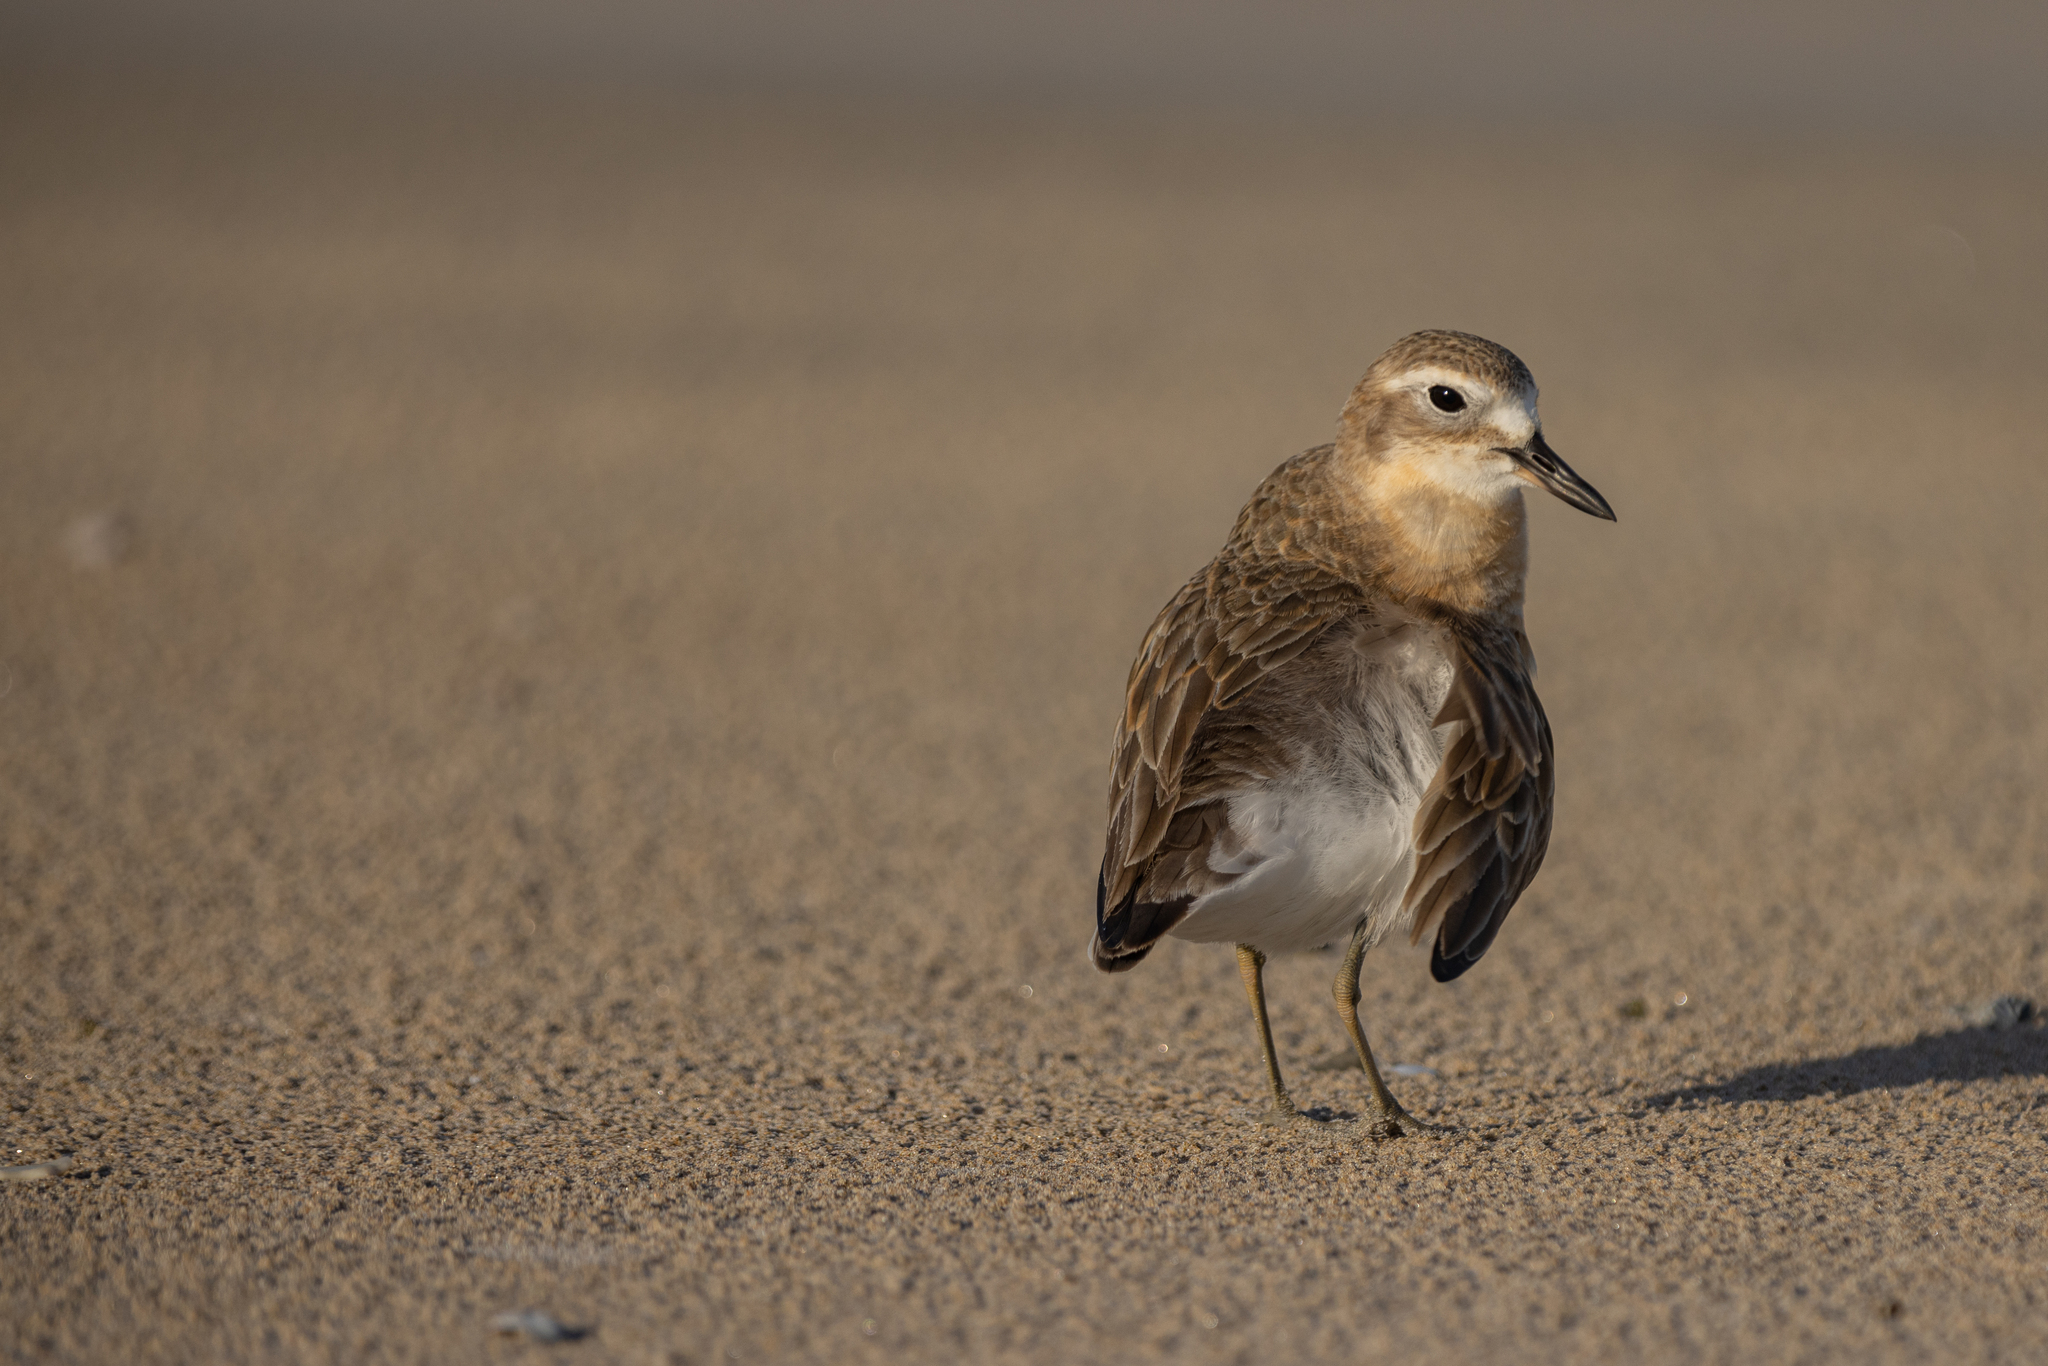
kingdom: Animalia
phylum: Chordata
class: Aves
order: Charadriiformes
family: Charadriidae
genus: Anarhynchus
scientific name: Anarhynchus
